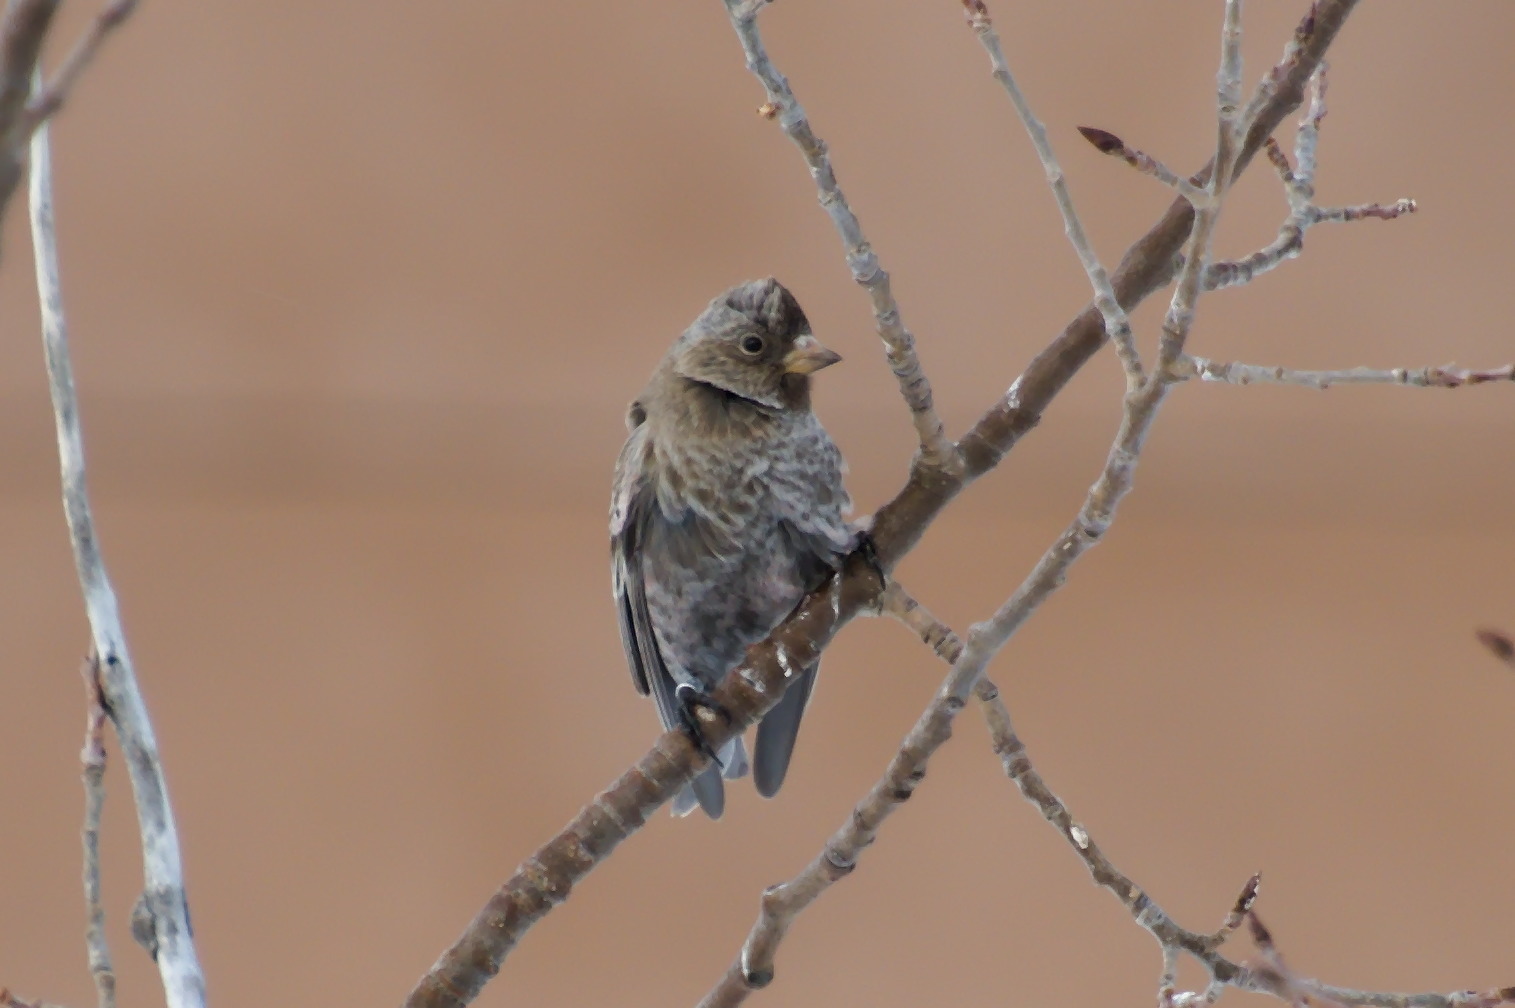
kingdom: Animalia
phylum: Chordata
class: Aves
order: Passeriformes
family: Fringillidae
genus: Leucosticte
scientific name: Leucosticte australis
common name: Brown-capped rosy-finch
